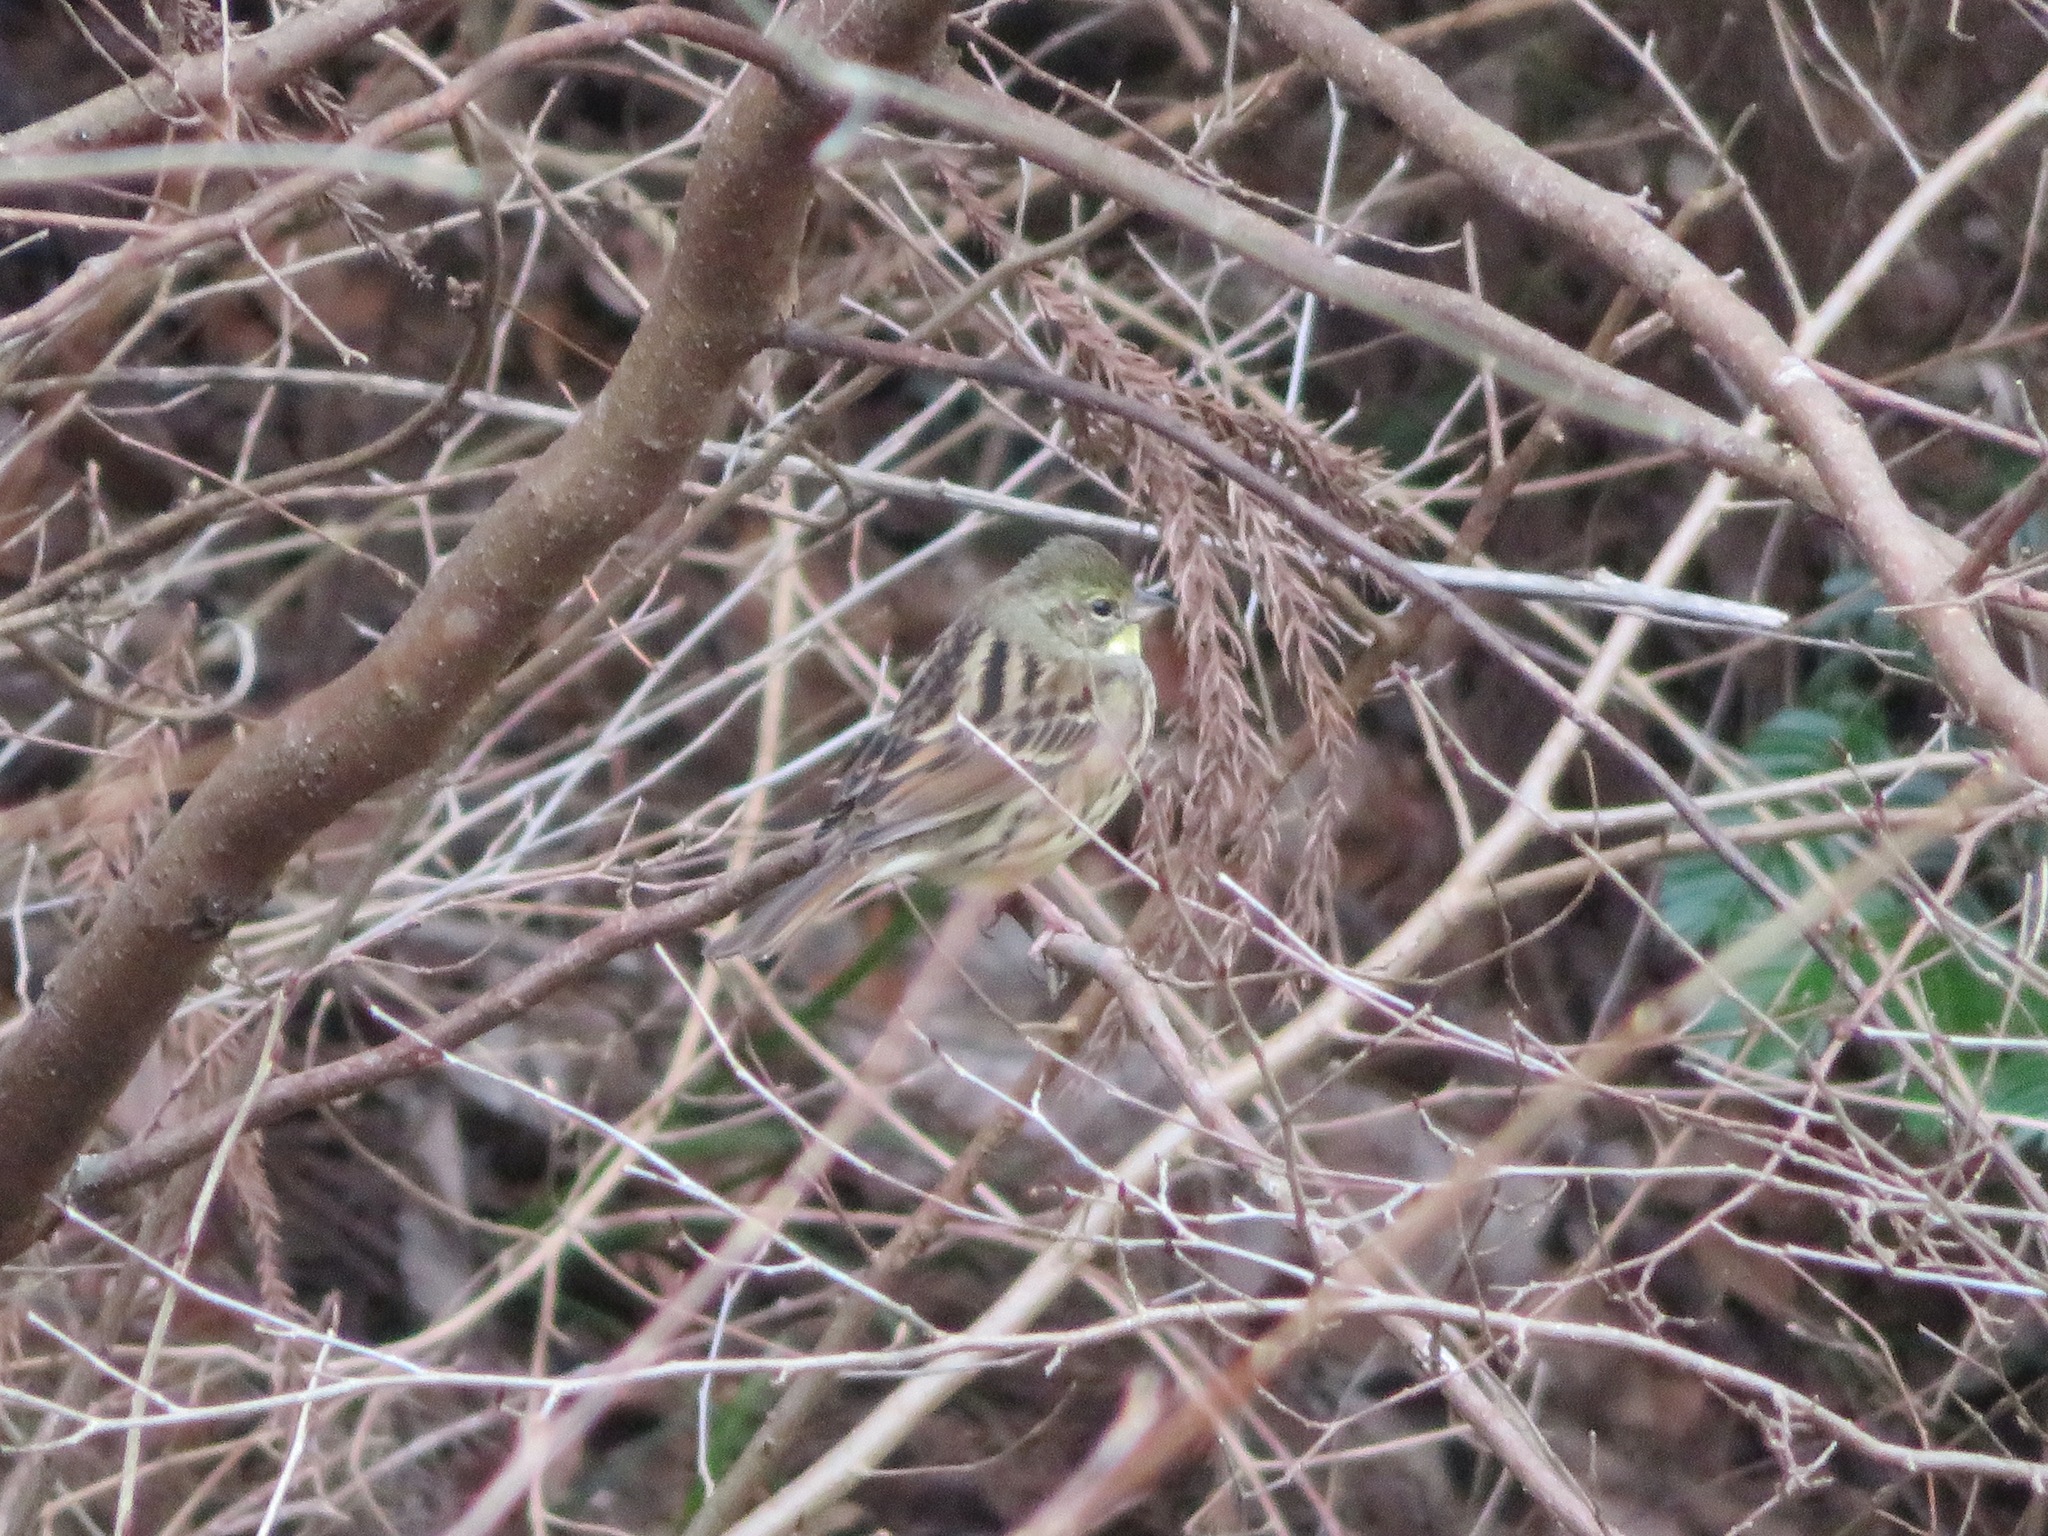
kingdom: Animalia
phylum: Chordata
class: Aves
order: Passeriformes
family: Emberizidae
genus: Emberiza
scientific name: Emberiza personata
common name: Masked bunting
